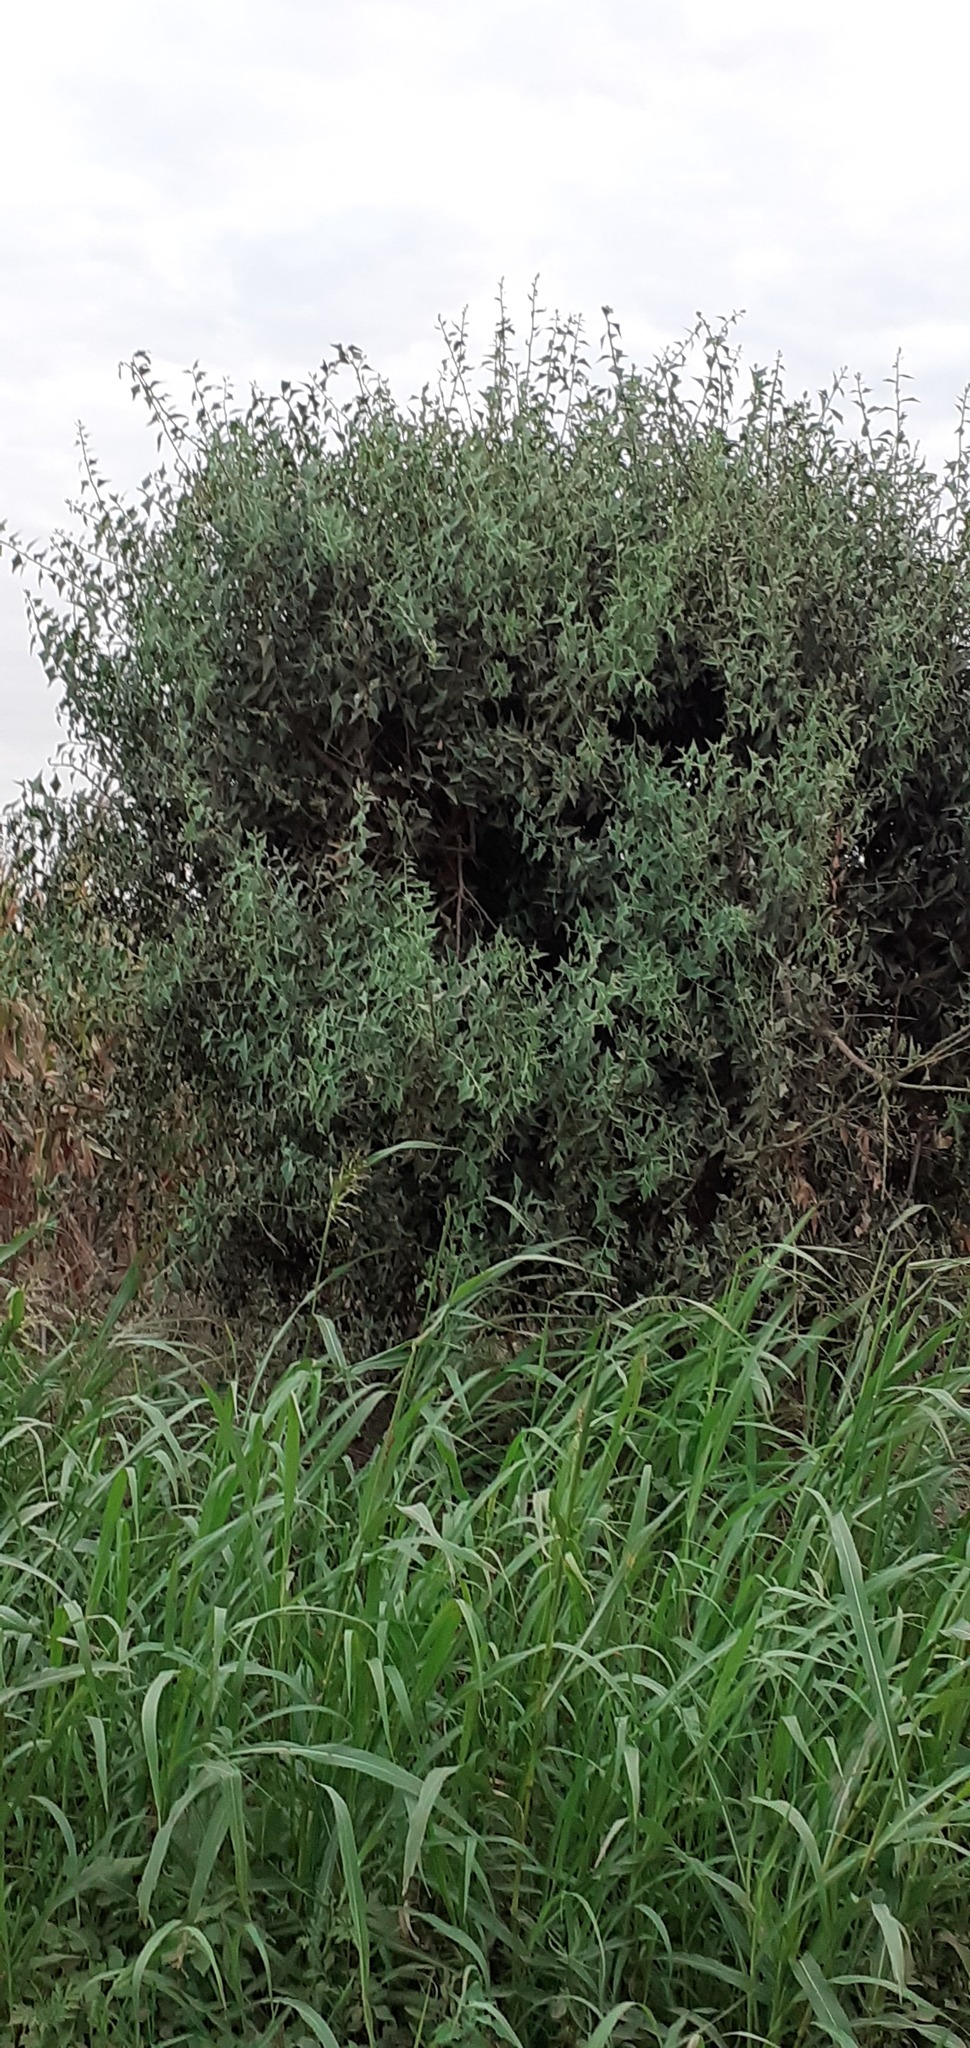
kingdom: Plantae
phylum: Tracheophyta
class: Magnoliopsida
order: Santalales
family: Cervantesiaceae
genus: Jodina
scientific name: Jodina rhombifolia
